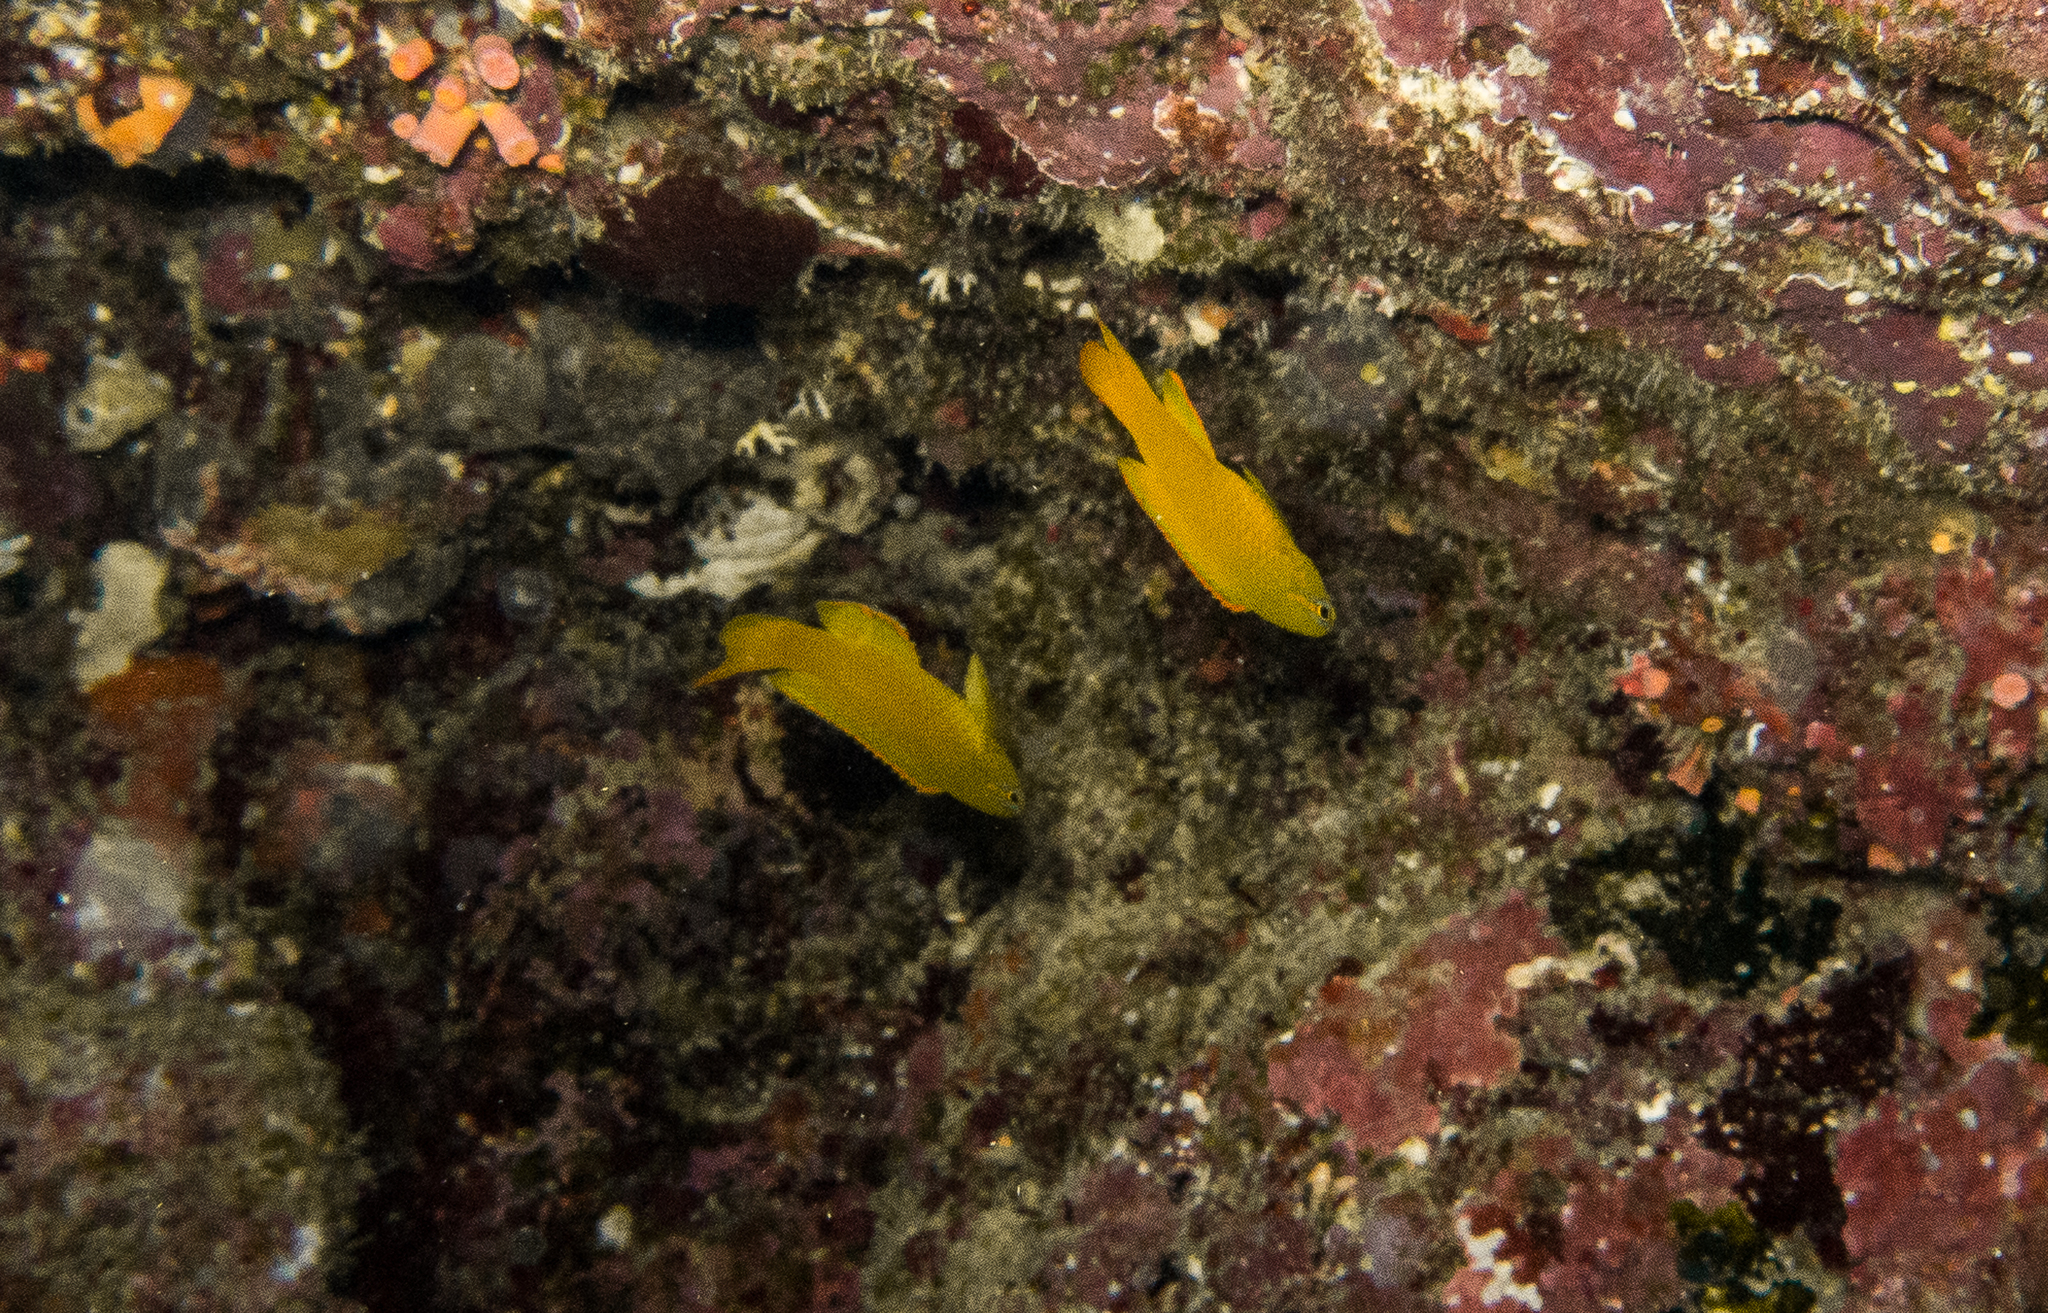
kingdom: Animalia
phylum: Chordata
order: Perciformes
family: Plesiopidae
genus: Assessor
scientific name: Assessor flavissimus
